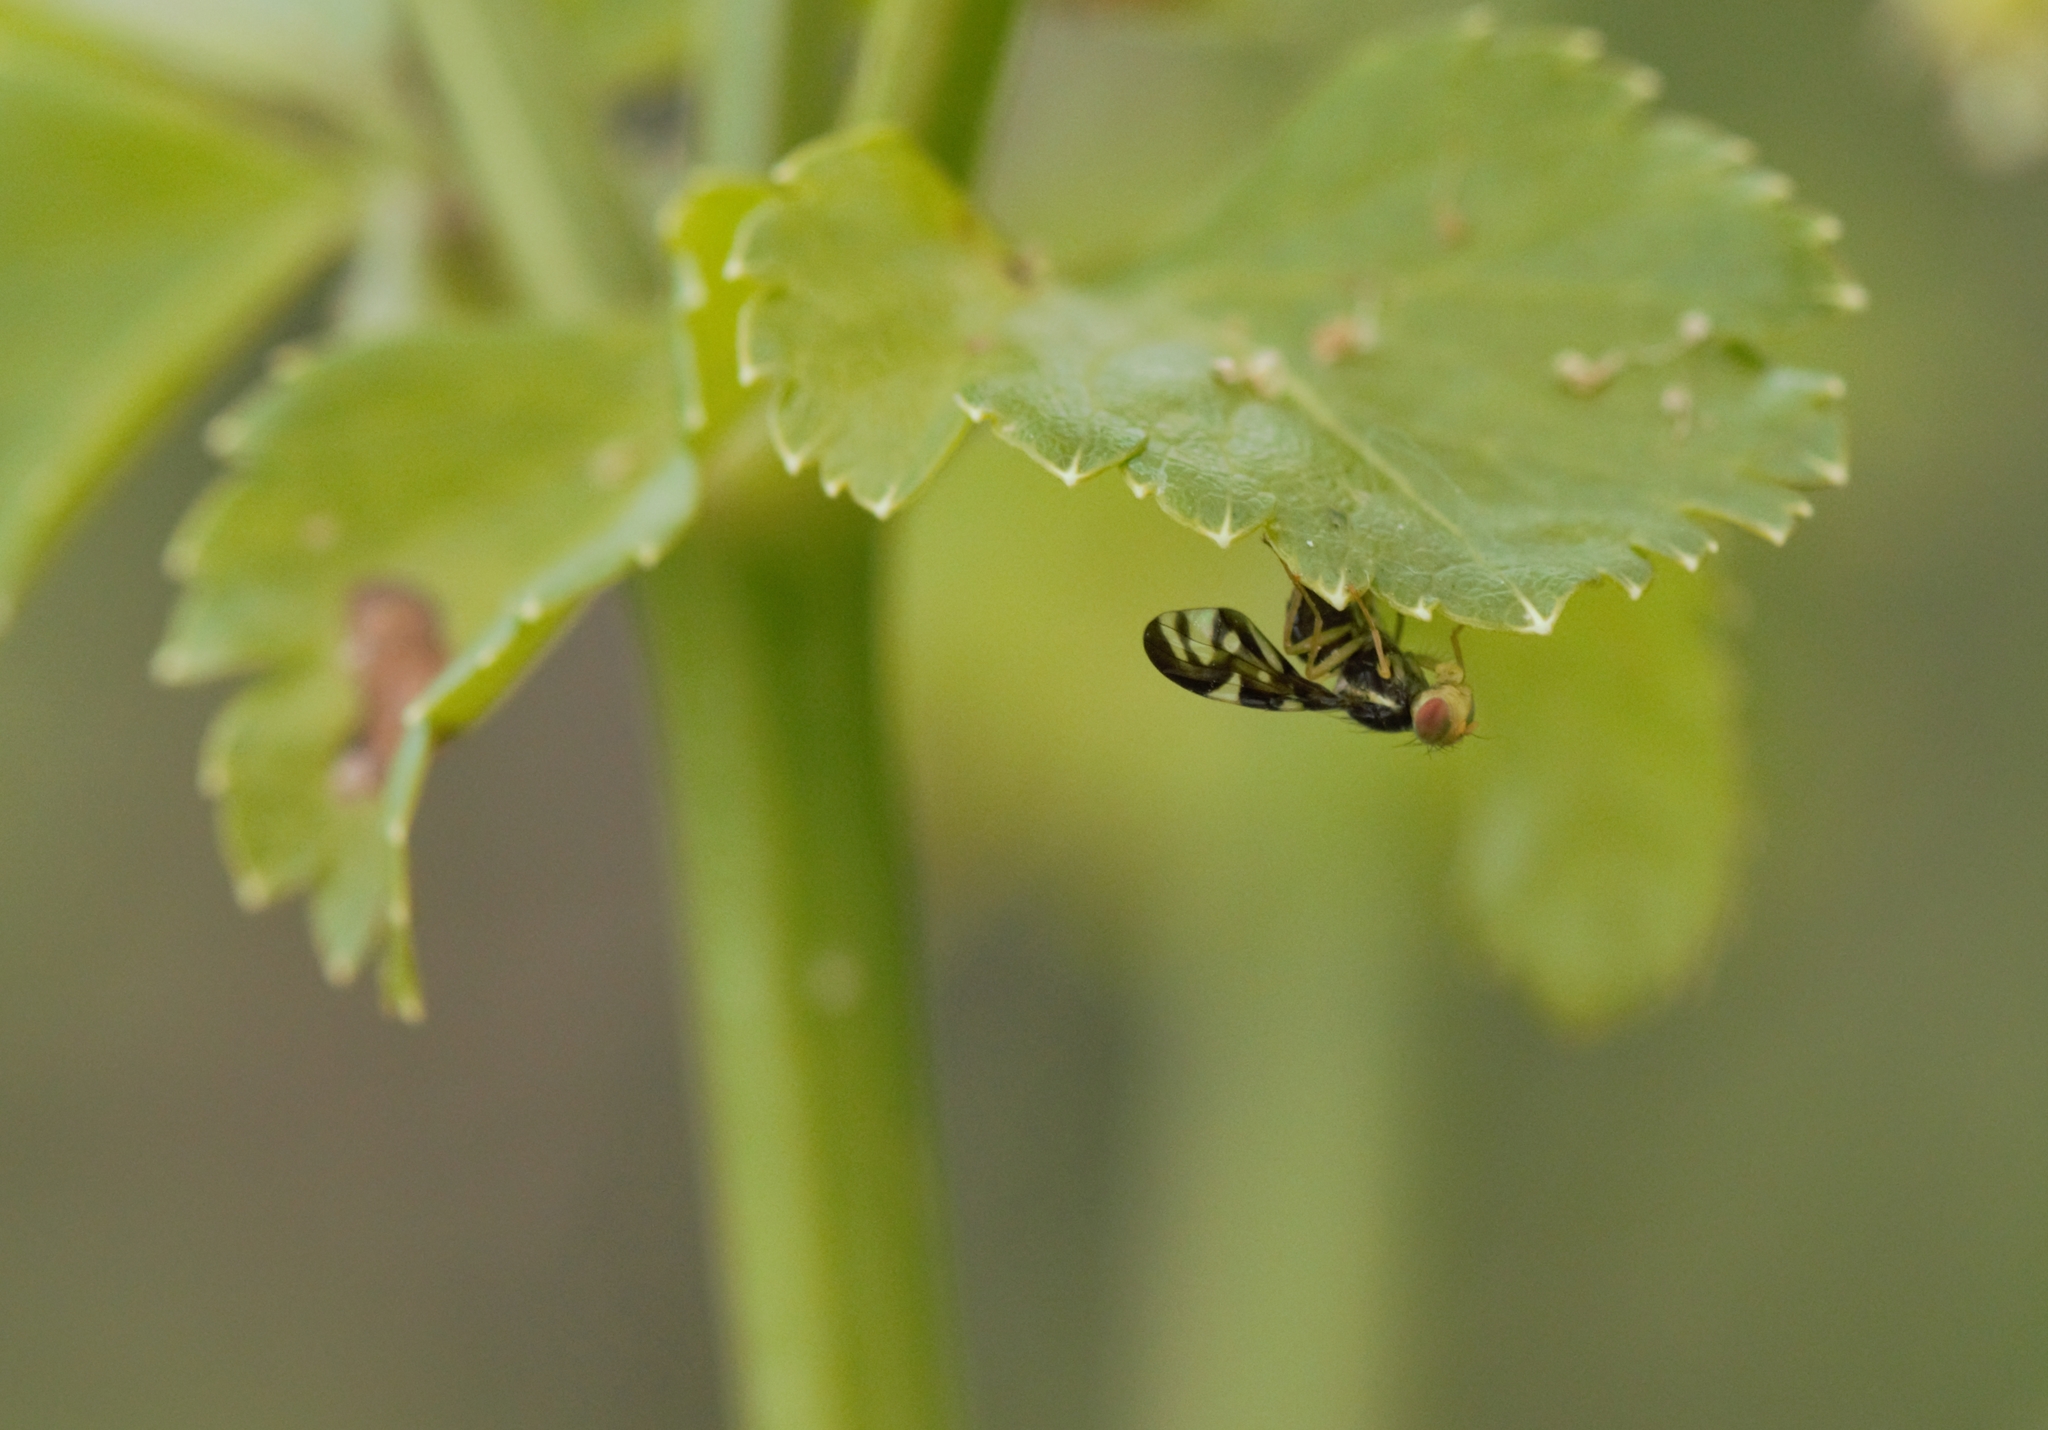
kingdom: Animalia
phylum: Arthropoda
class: Insecta
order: Diptera
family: Tephritidae
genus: Euleia
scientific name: Euleia heraclei
